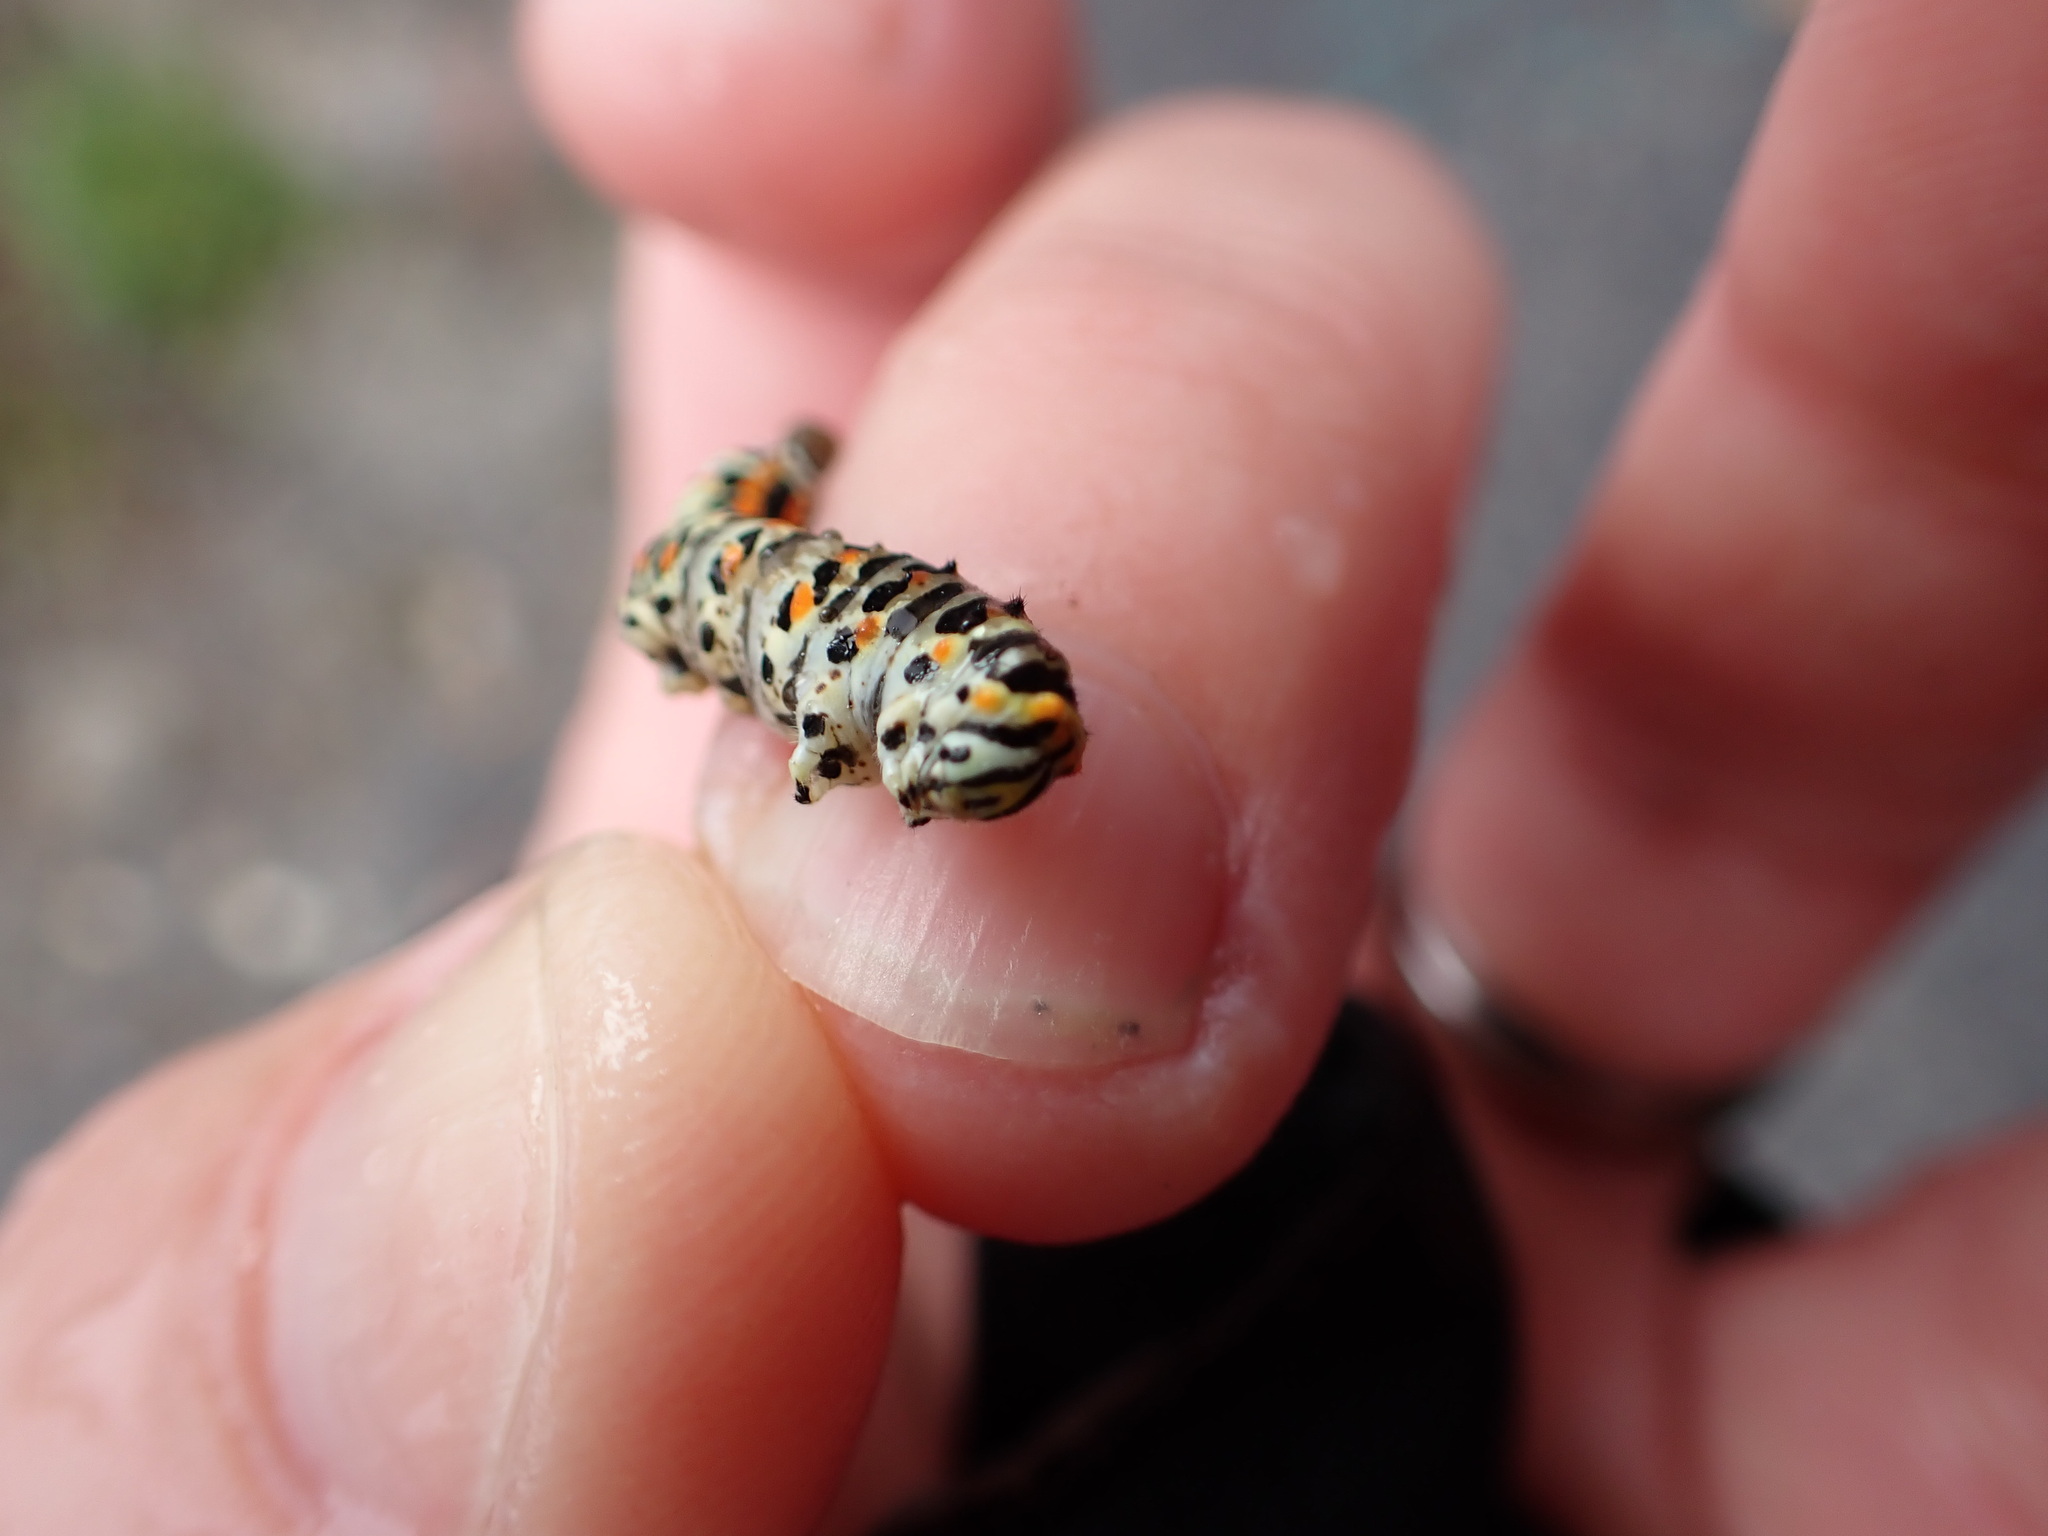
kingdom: Animalia
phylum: Arthropoda
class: Insecta
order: Lepidoptera
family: Papilionidae
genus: Papilio
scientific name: Papilio machaon
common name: Swallowtail
